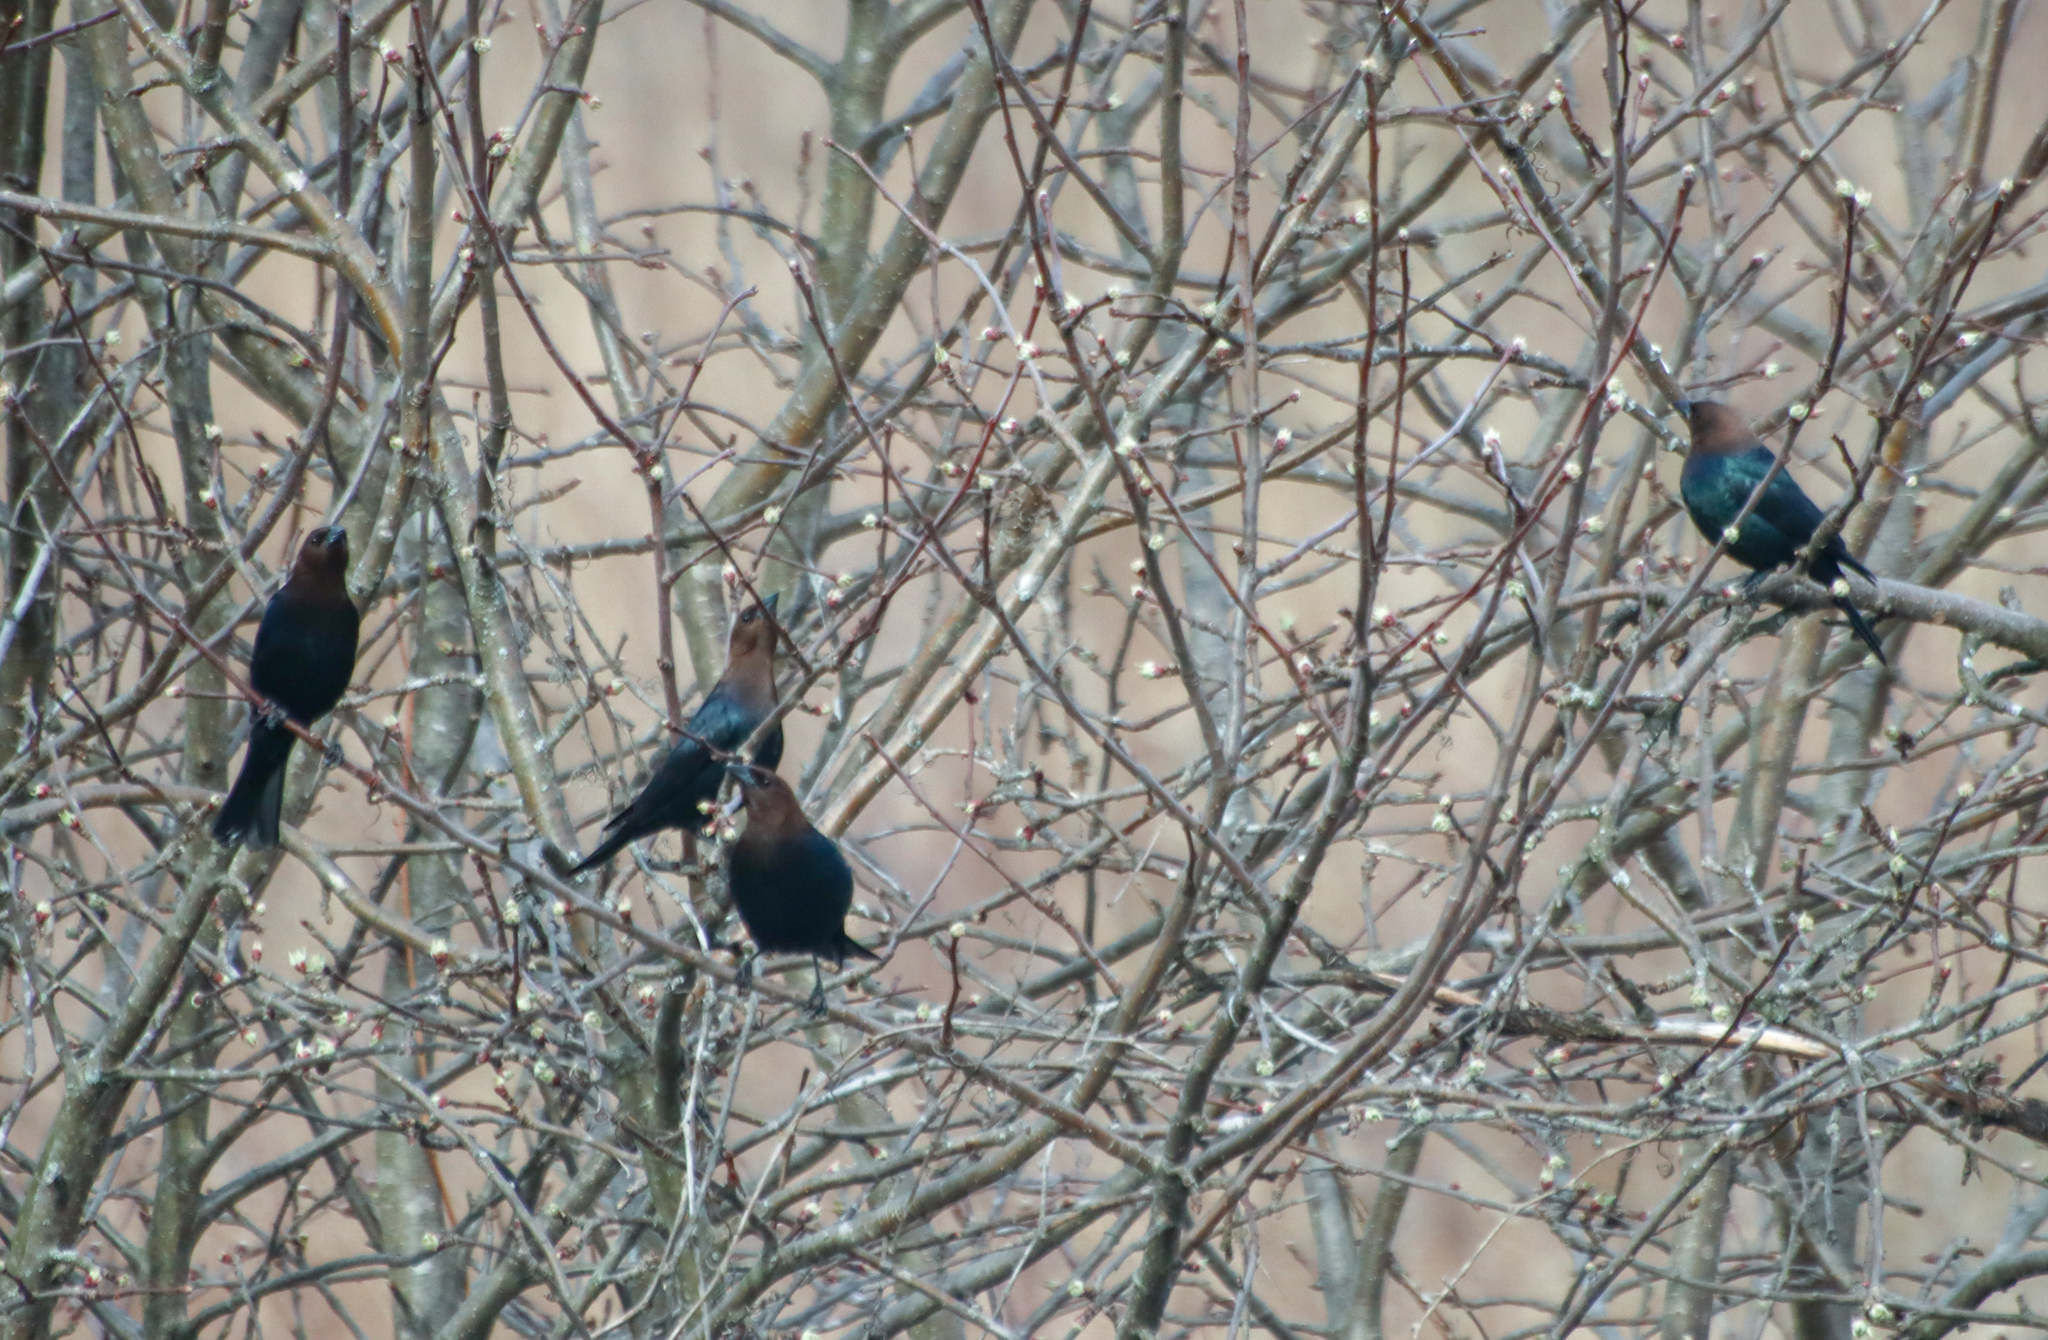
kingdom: Animalia
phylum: Chordata
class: Aves
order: Passeriformes
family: Icteridae
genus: Molothrus
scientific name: Molothrus ater
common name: Brown-headed cowbird
